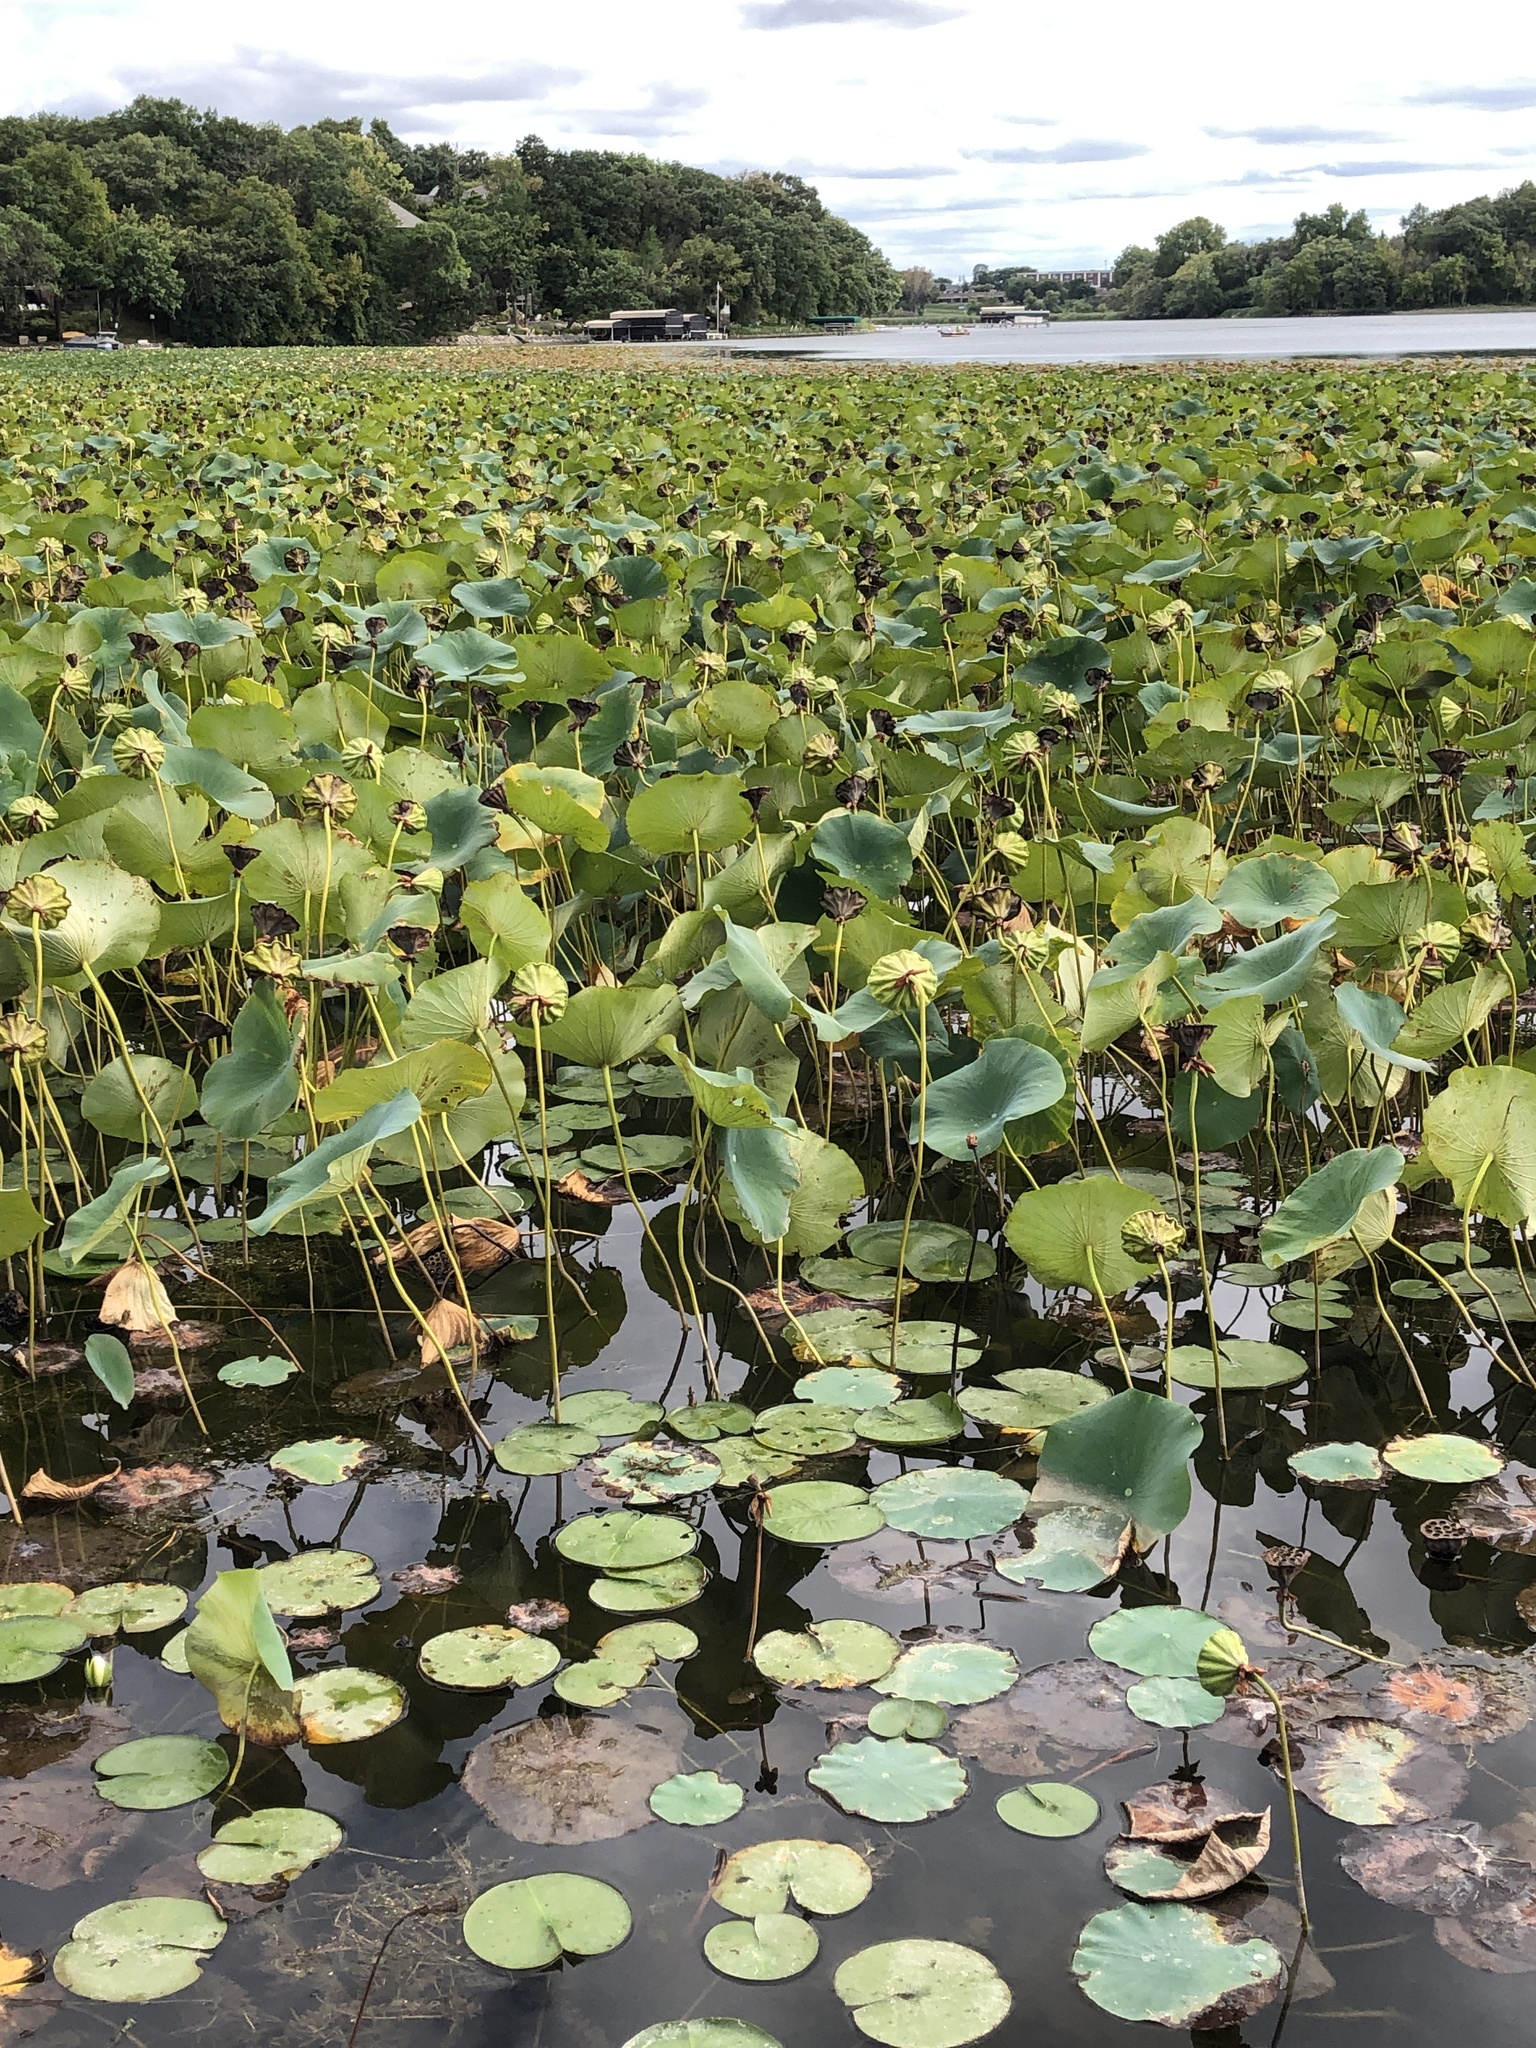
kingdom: Plantae
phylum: Tracheophyta
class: Magnoliopsida
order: Proteales
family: Nelumbonaceae
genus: Nelumbo
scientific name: Nelumbo lutea
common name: American lotus
